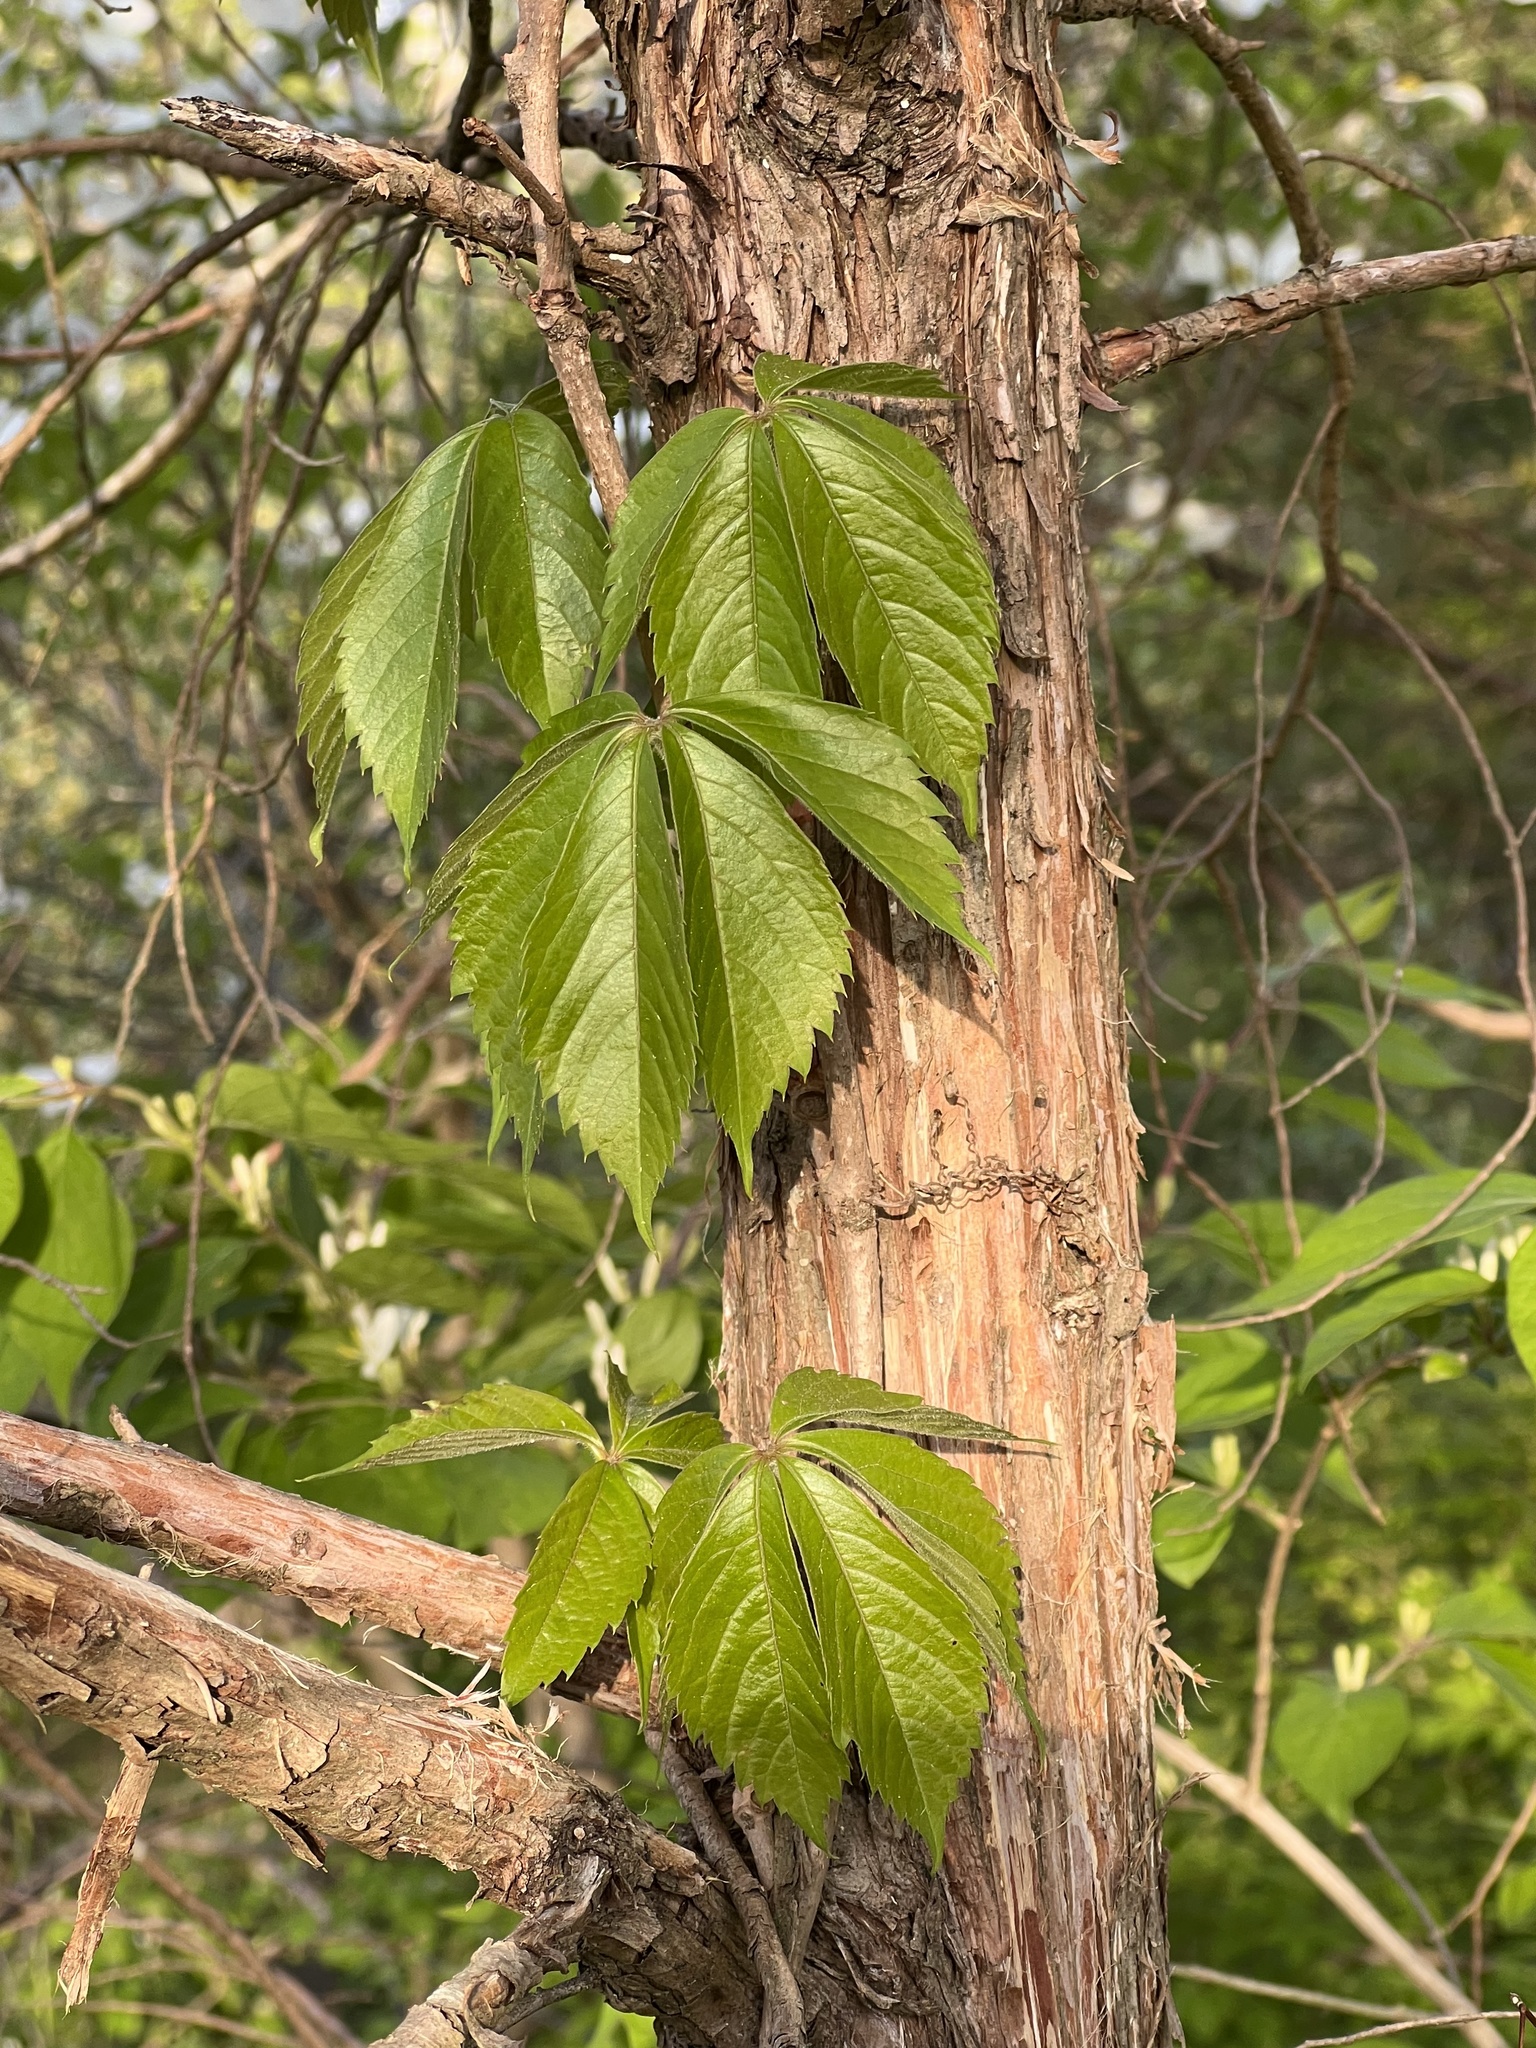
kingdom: Plantae
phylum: Tracheophyta
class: Magnoliopsida
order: Vitales
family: Vitaceae
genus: Parthenocissus
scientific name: Parthenocissus quinquefolia
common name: Virginia-creeper
